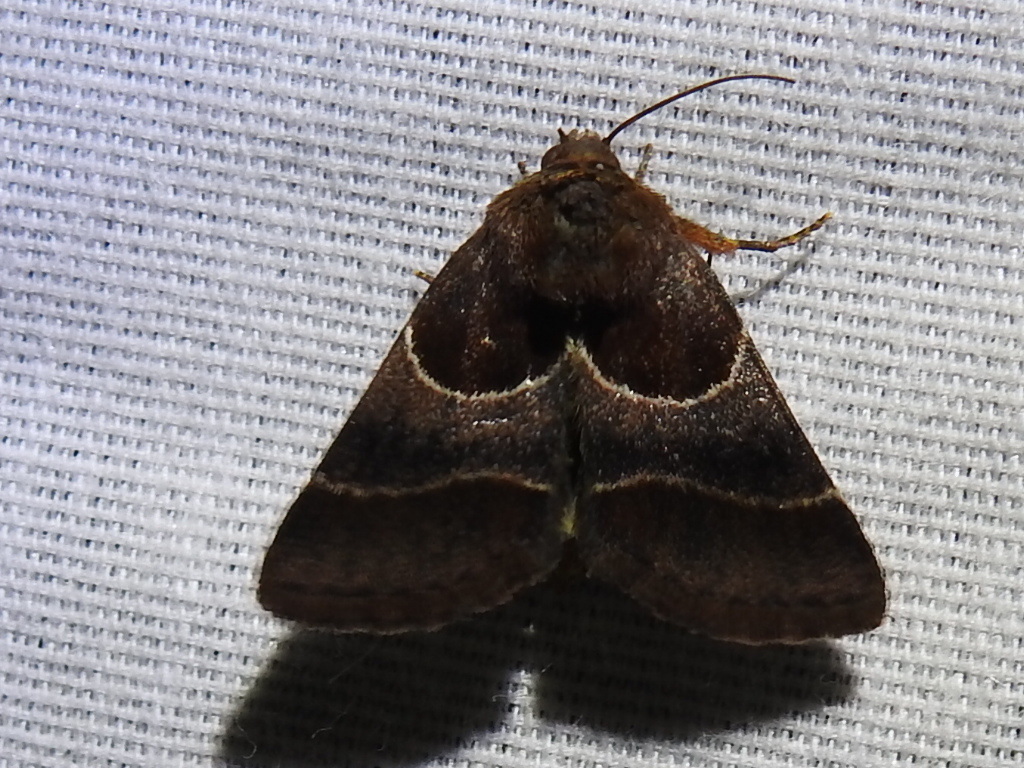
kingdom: Animalia
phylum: Arthropoda
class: Insecta
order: Lepidoptera
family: Noctuidae
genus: Schinia
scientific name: Schinia arcigera
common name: Arcigera flower moth
